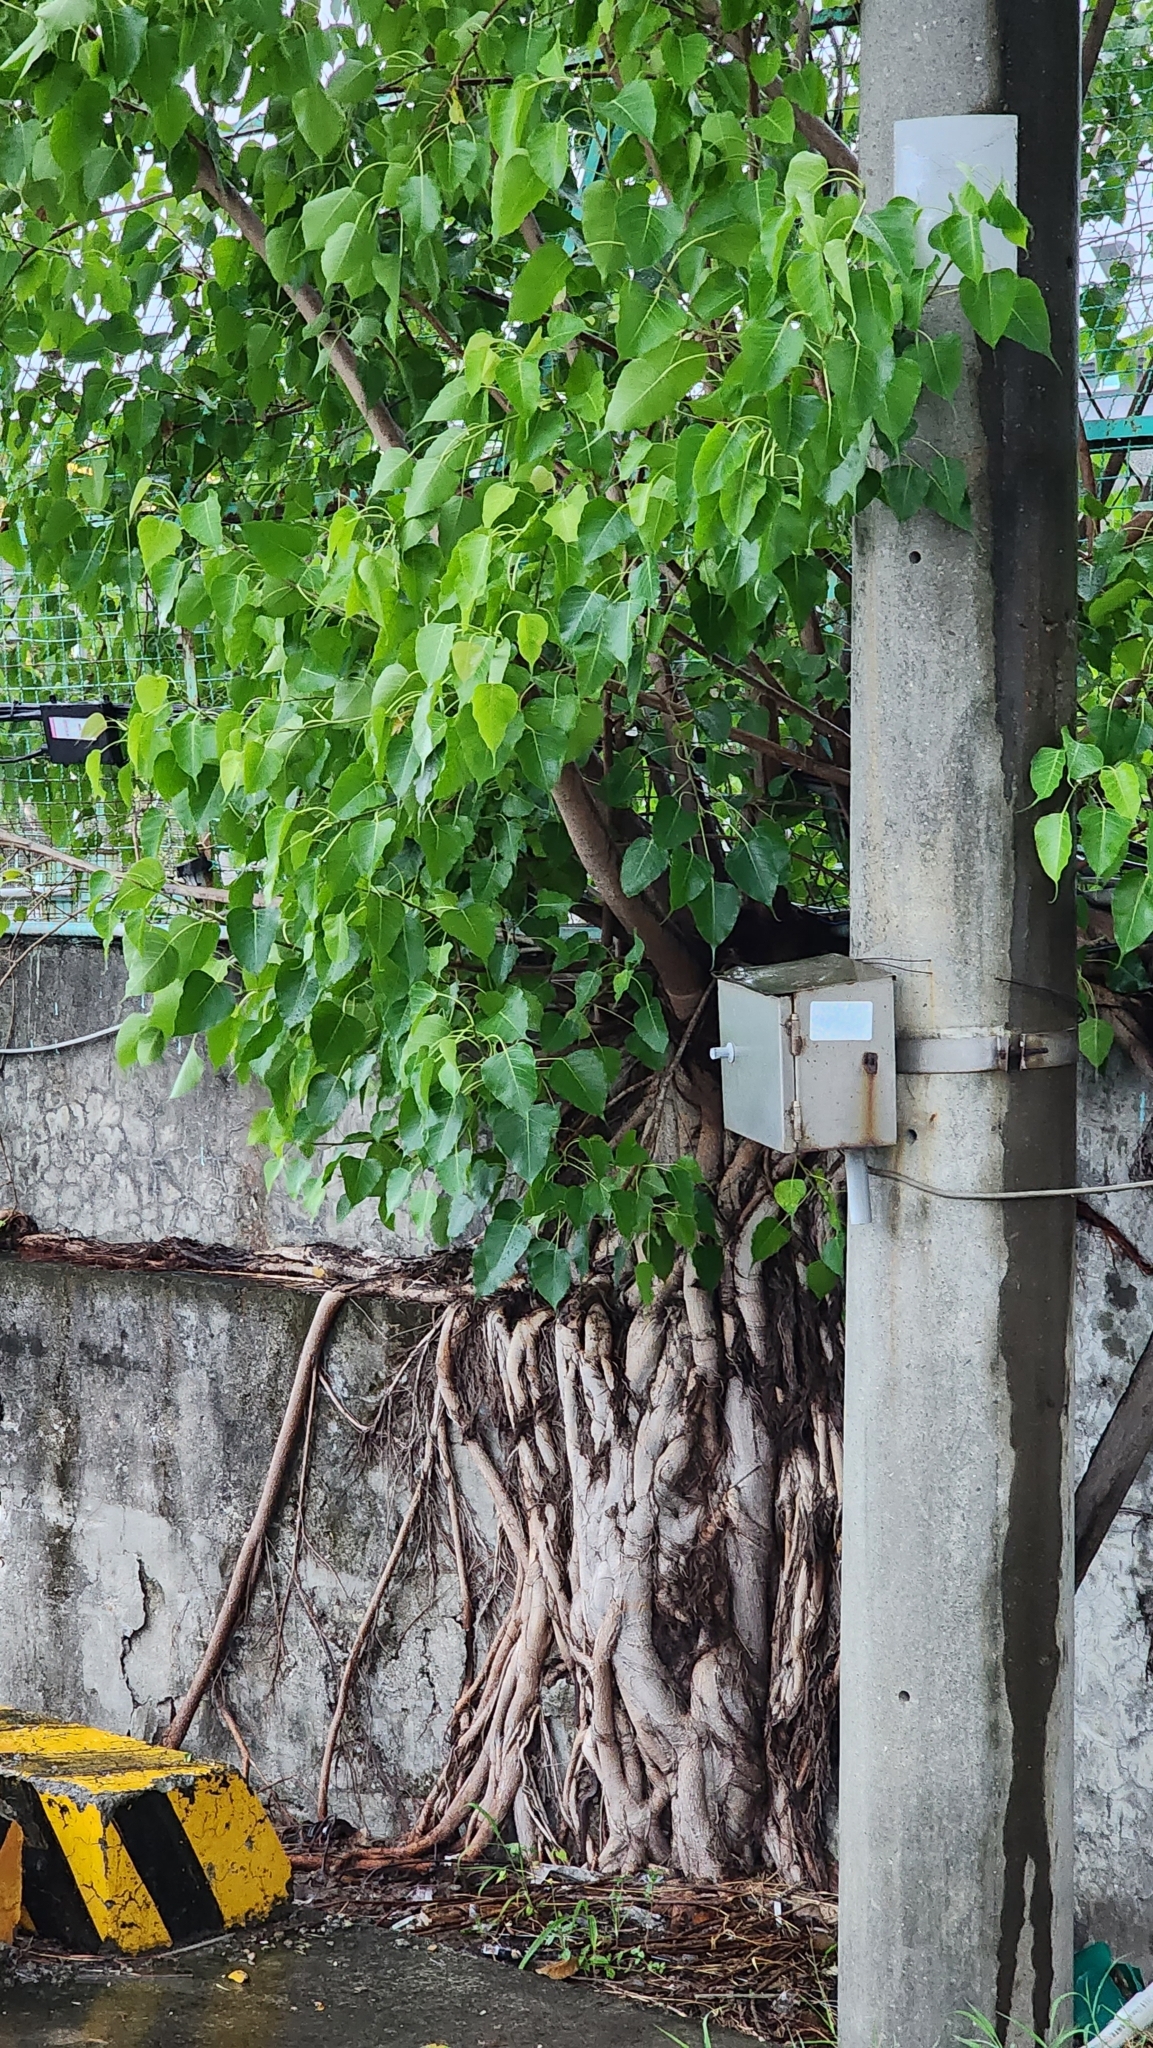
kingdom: Plantae
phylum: Tracheophyta
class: Magnoliopsida
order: Rosales
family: Moraceae
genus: Ficus
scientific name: Ficus religiosa
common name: Bodhi tree
